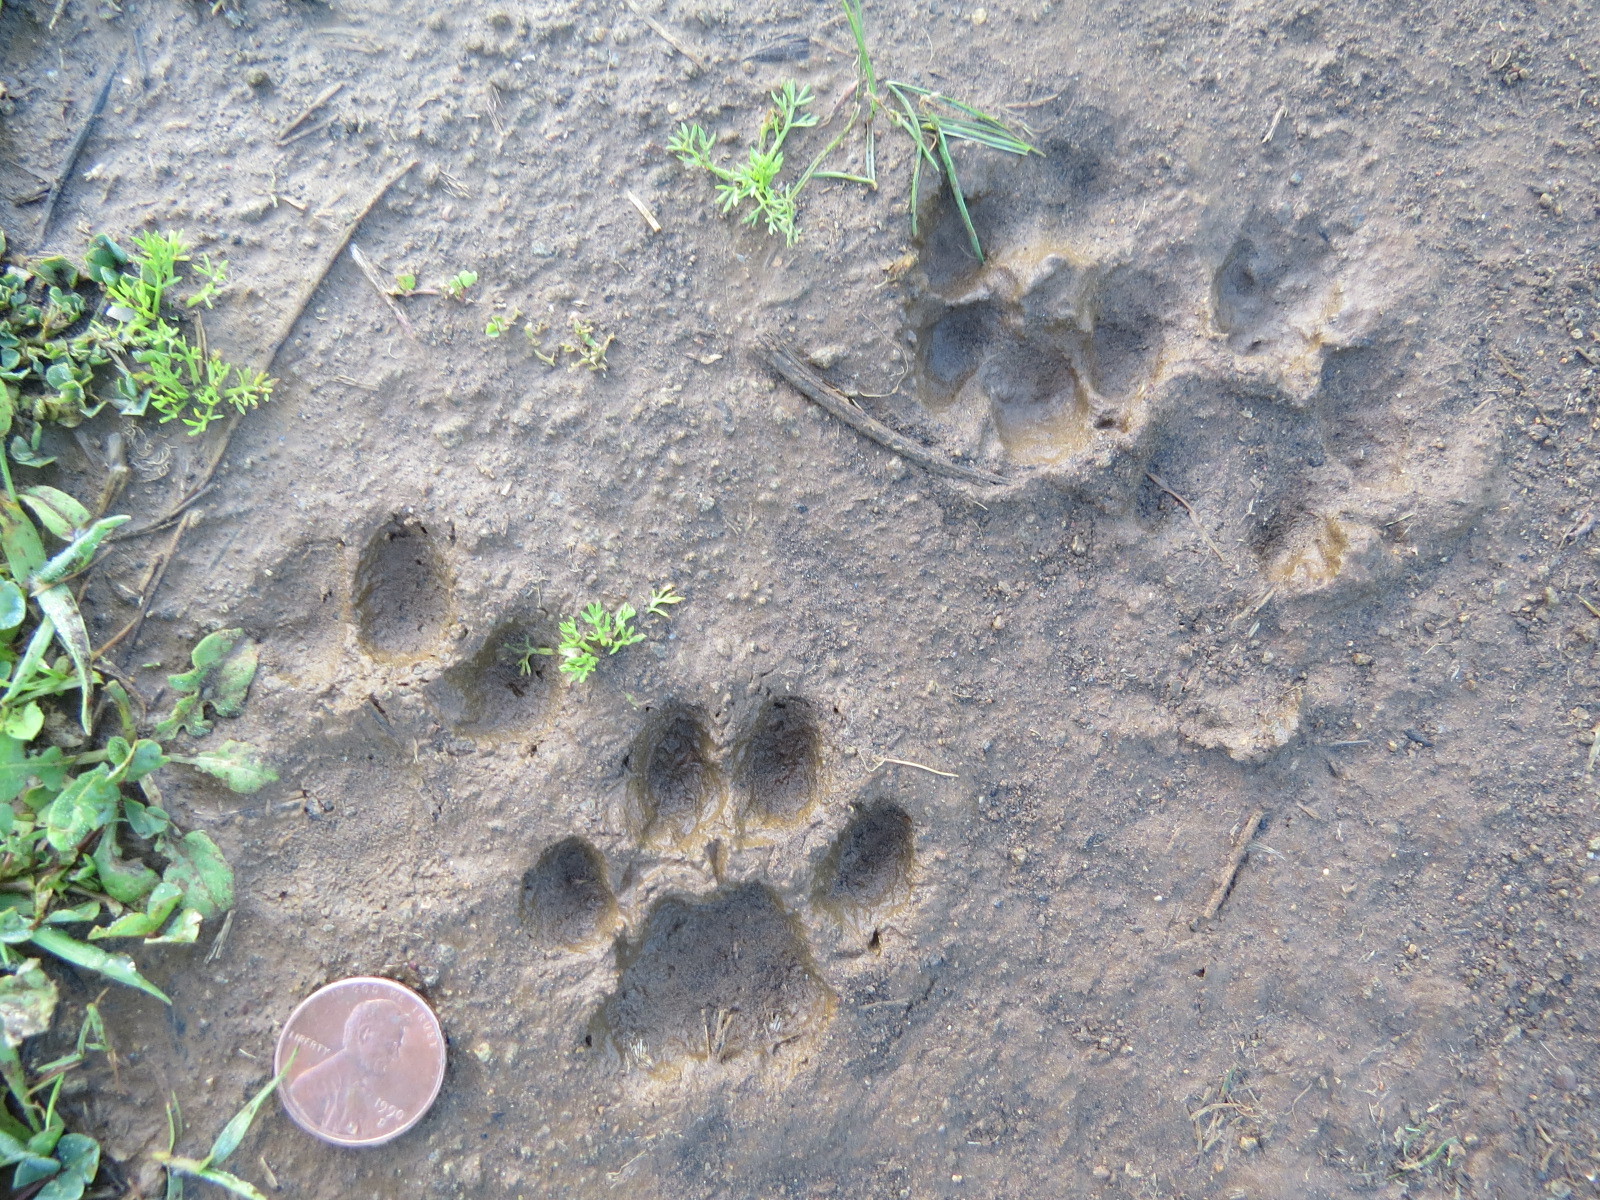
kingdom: Animalia
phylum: Chordata
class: Mammalia
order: Carnivora
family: Felidae
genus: Lynx
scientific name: Lynx rufus
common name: Bobcat
